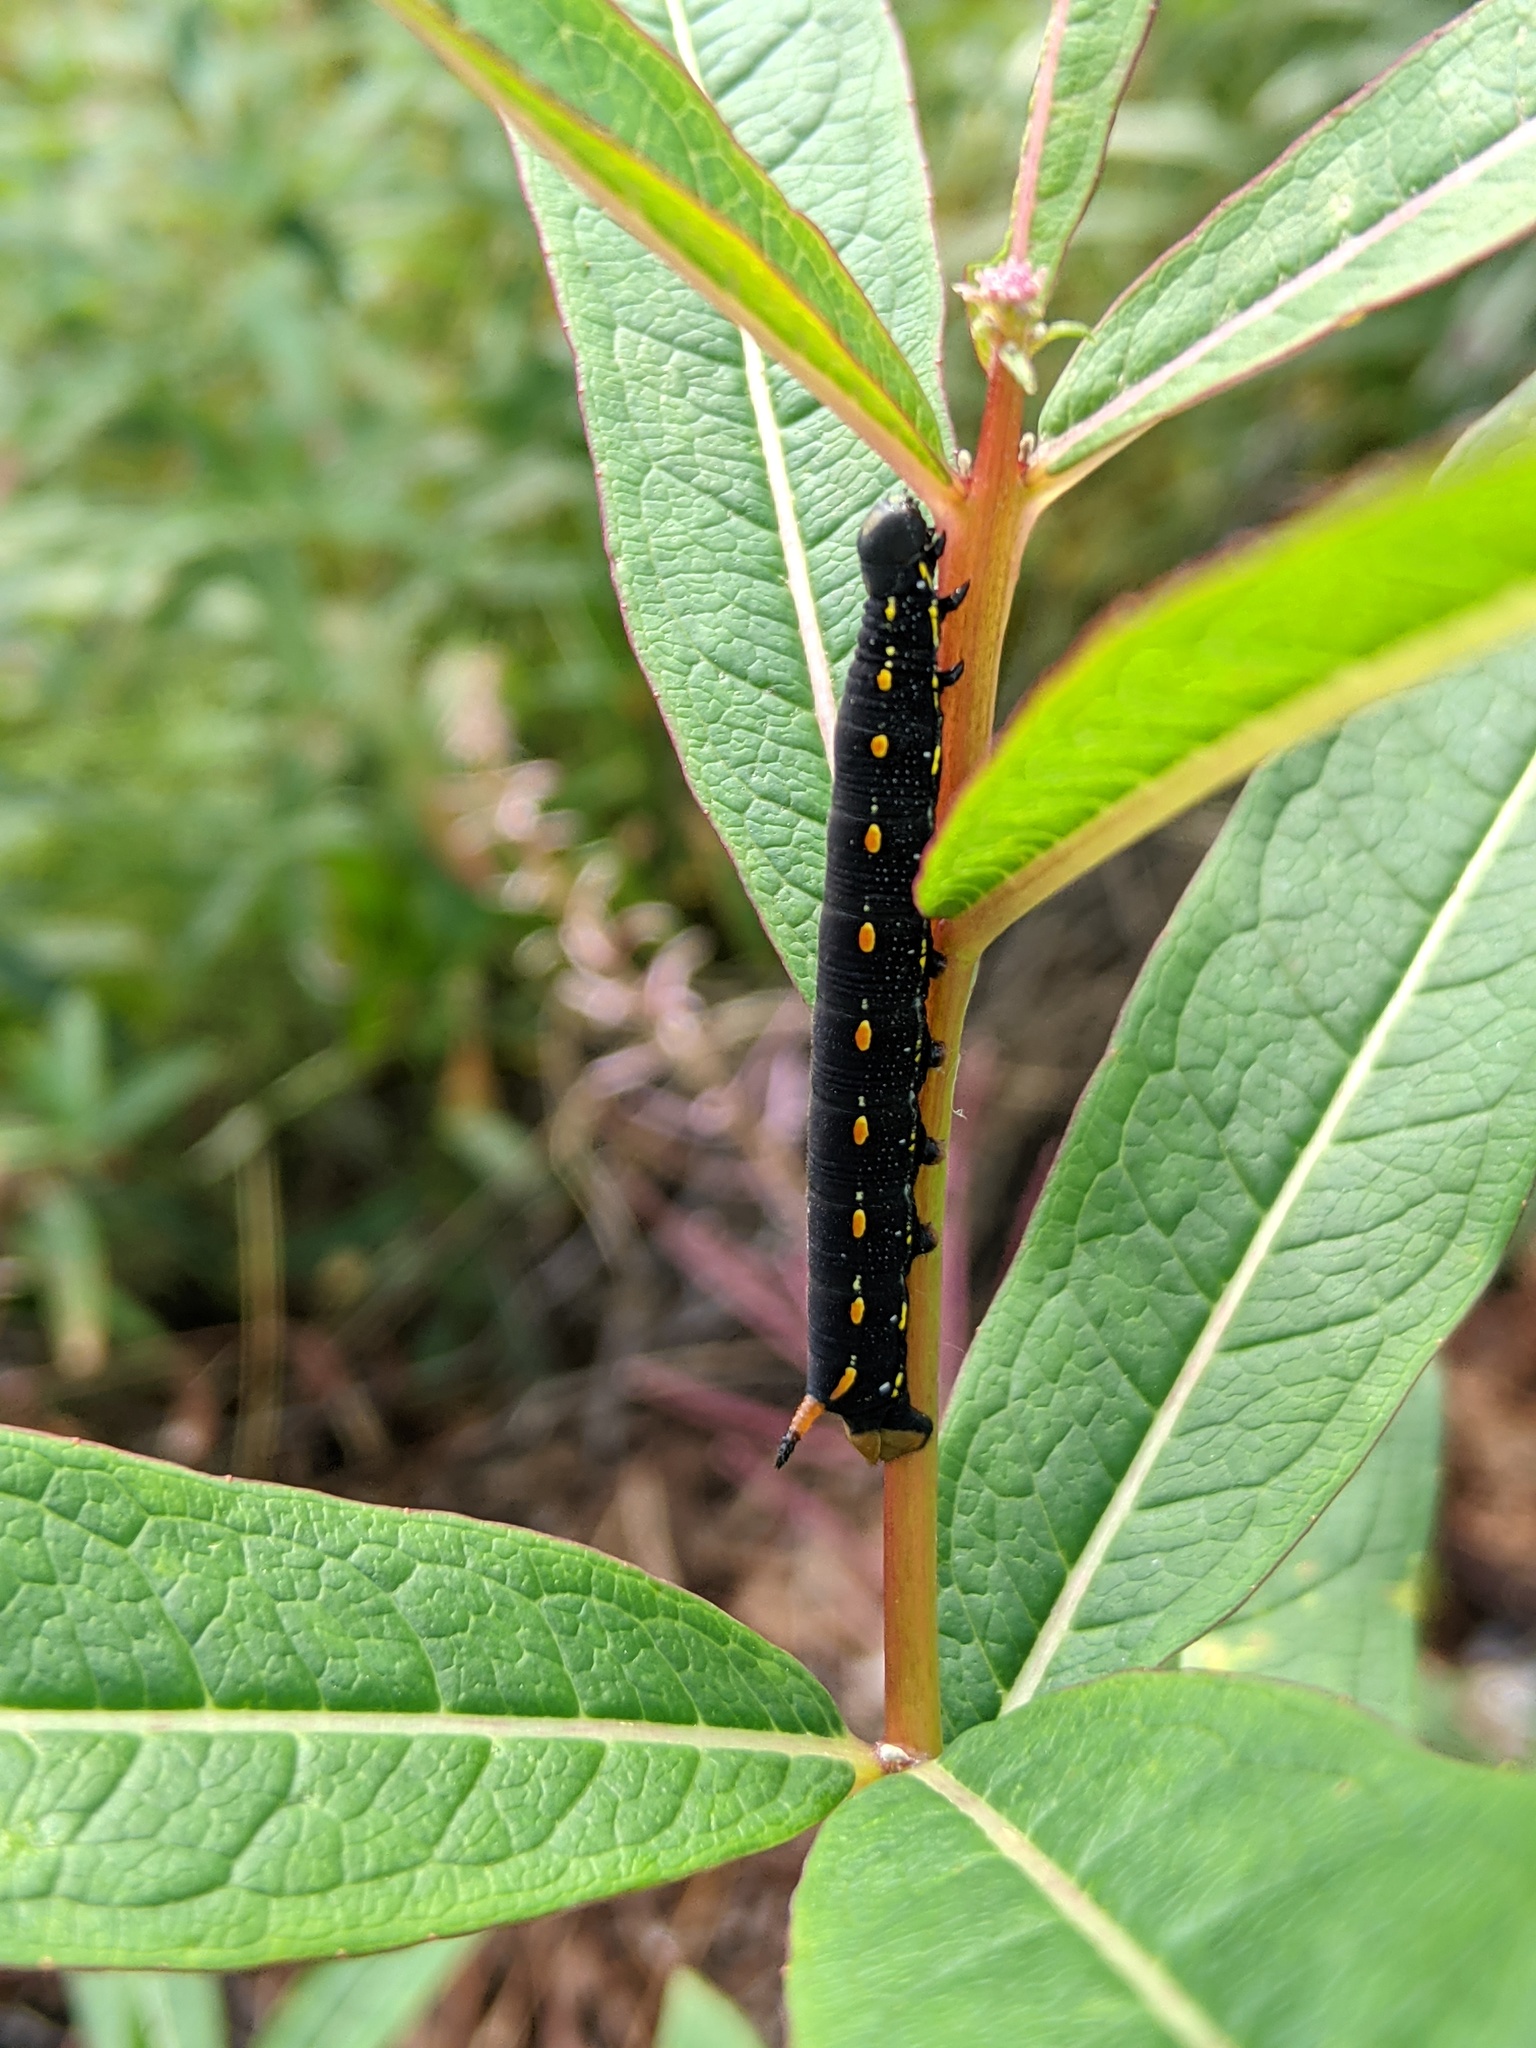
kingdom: Animalia
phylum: Arthropoda
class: Insecta
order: Lepidoptera
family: Sphingidae
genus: Hyles
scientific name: Hyles gallii
